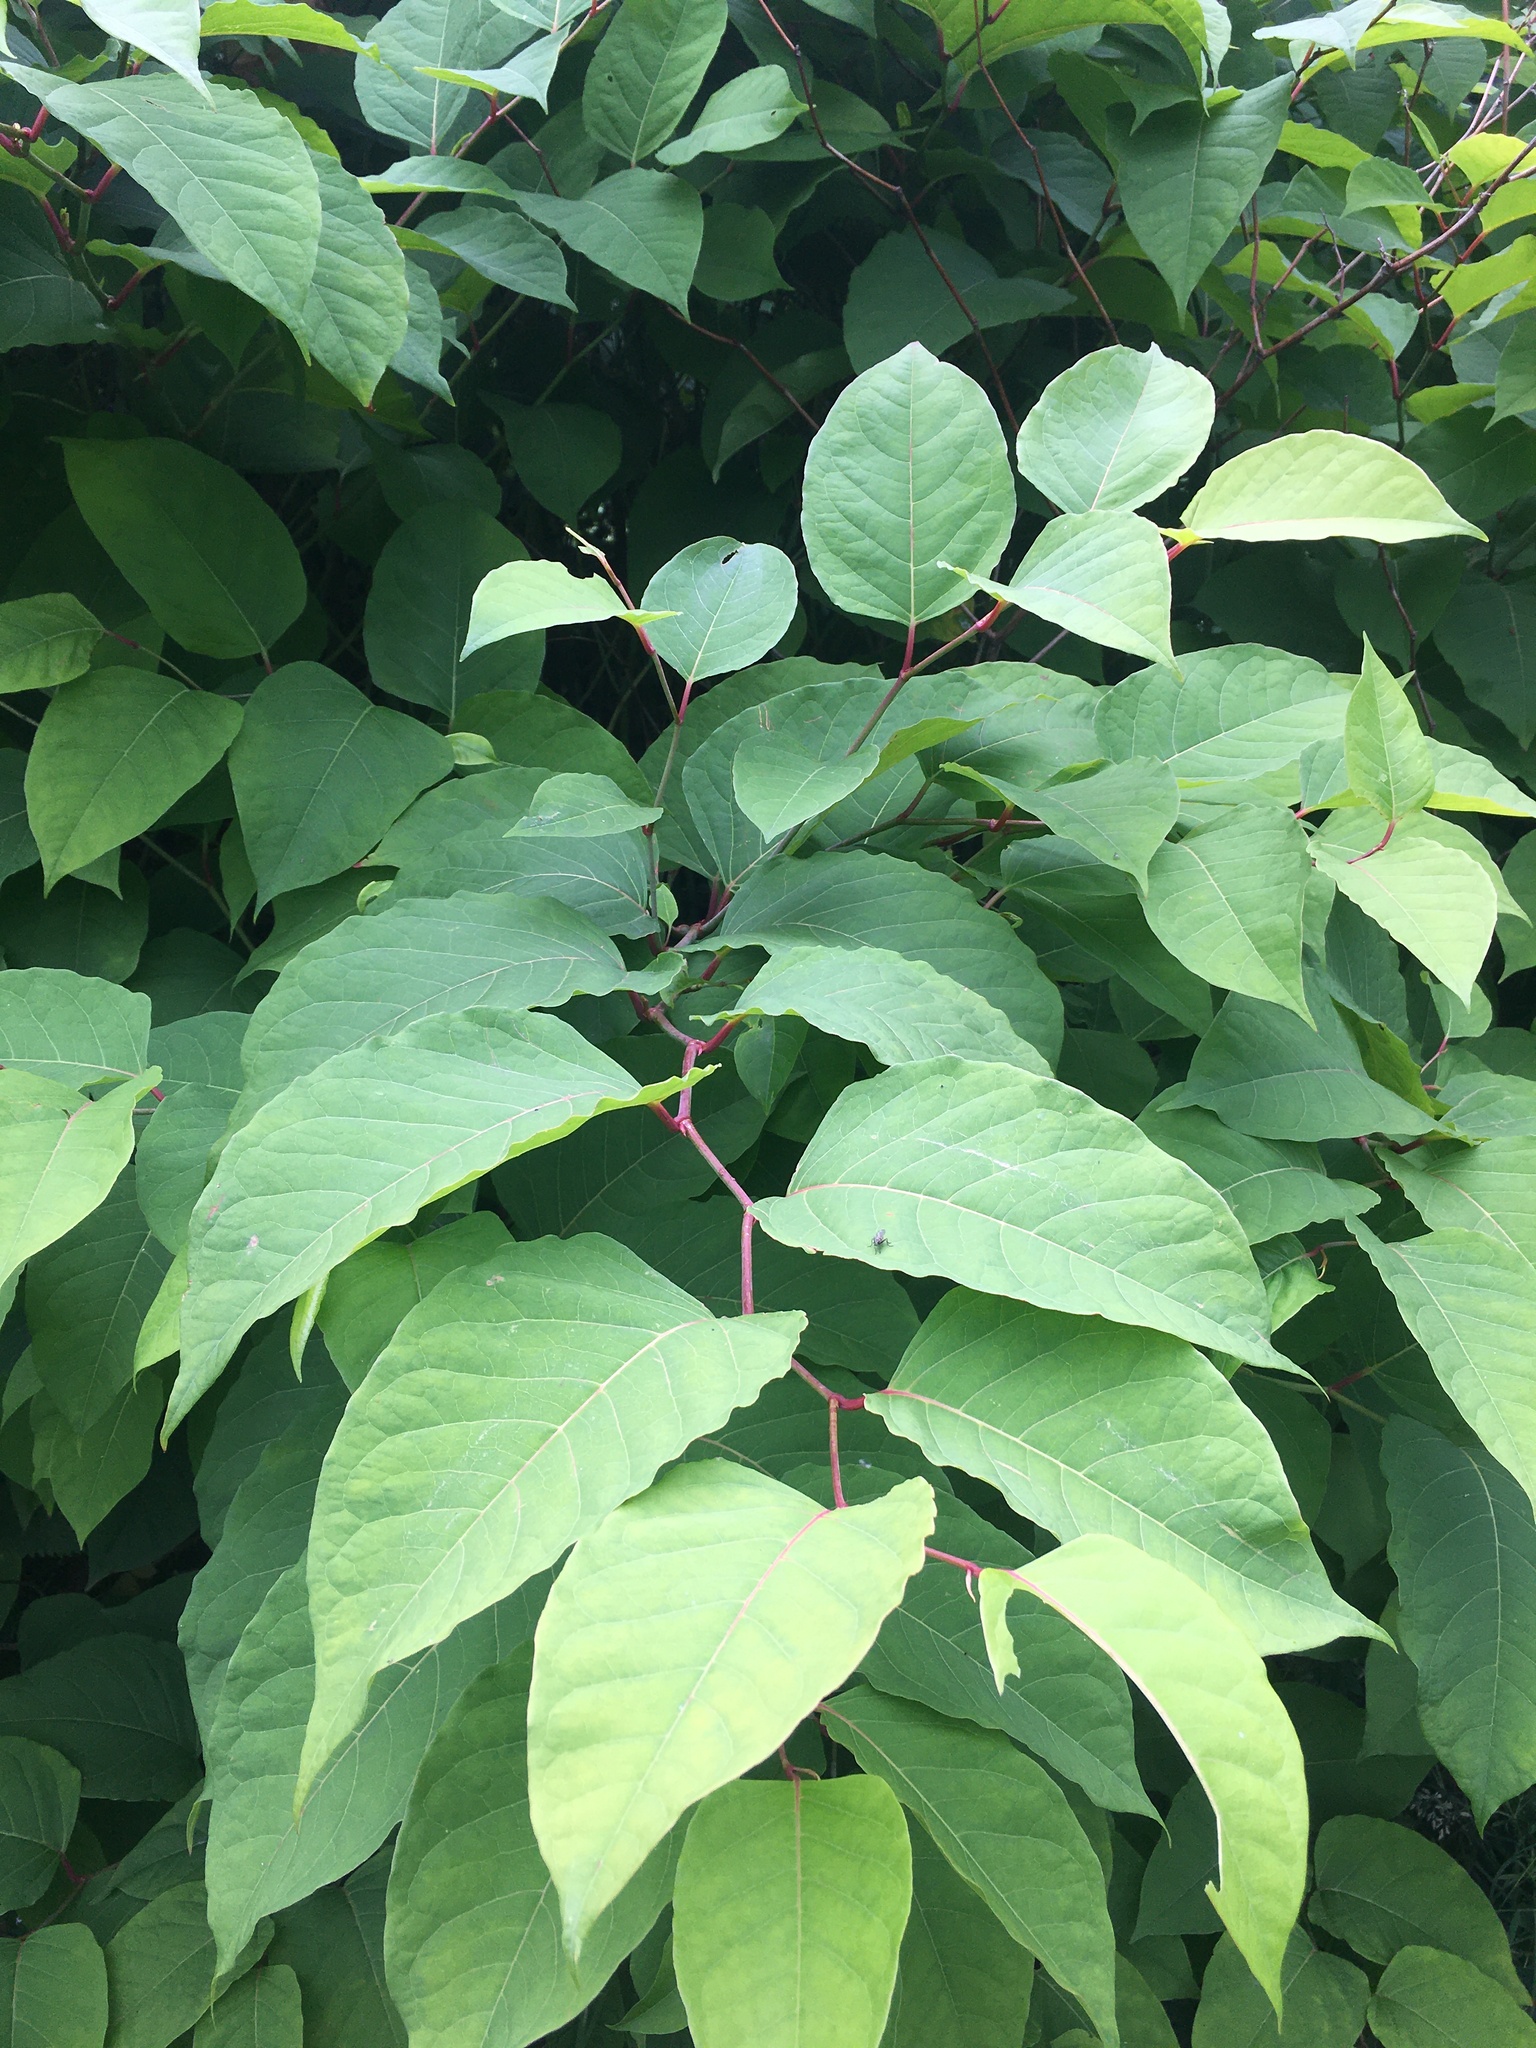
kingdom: Plantae
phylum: Tracheophyta
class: Magnoliopsida
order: Caryophyllales
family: Polygonaceae
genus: Reynoutria
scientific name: Reynoutria japonica
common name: Japanese knotweed
